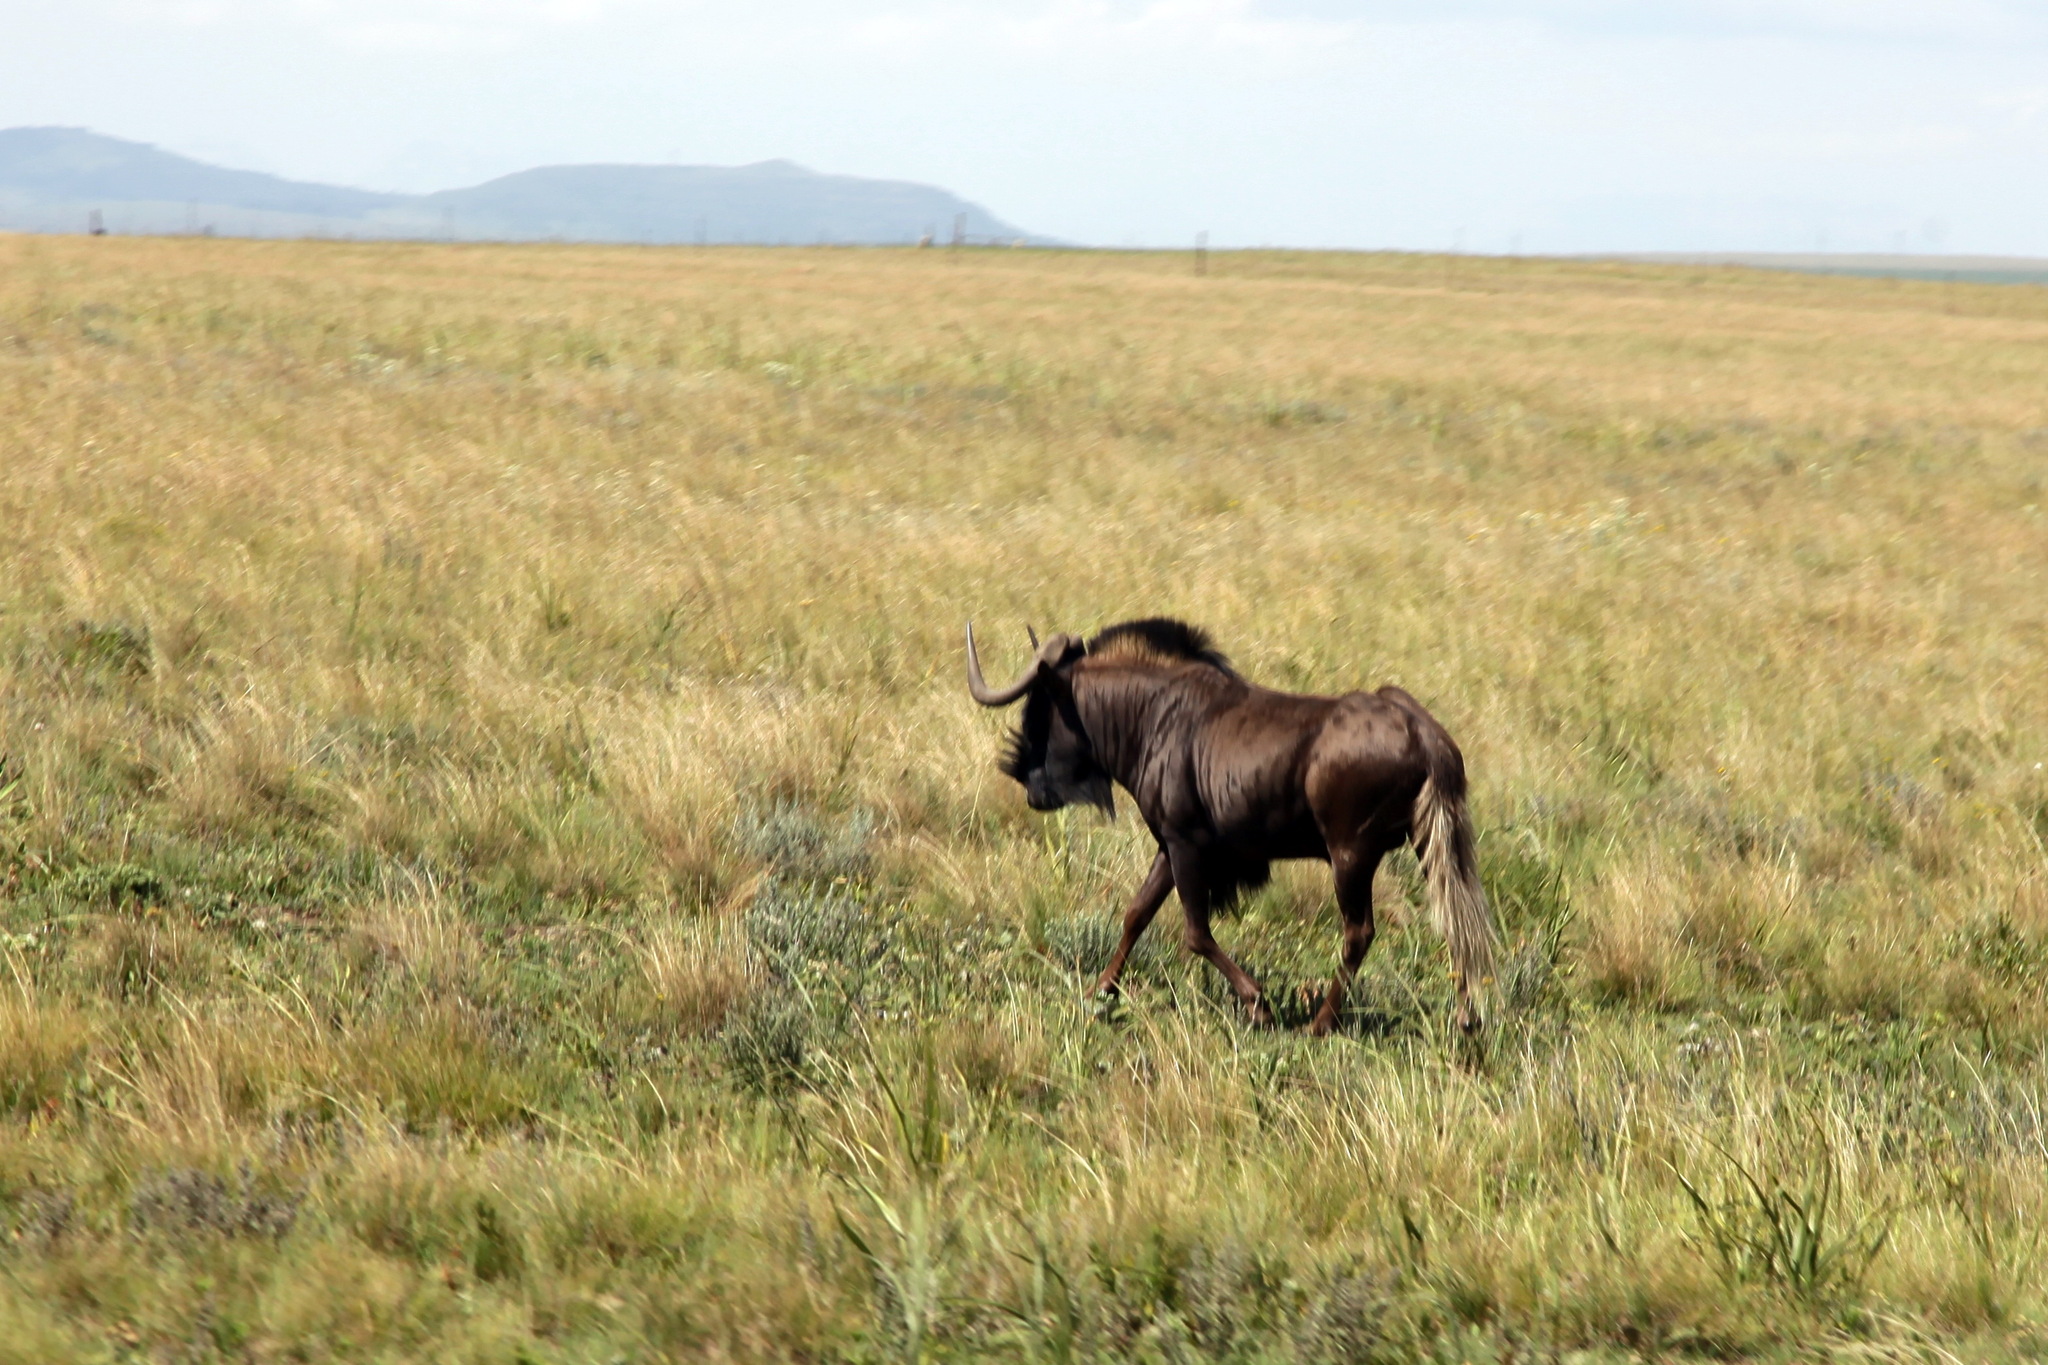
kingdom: Animalia
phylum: Chordata
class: Mammalia
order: Artiodactyla
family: Bovidae
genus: Connochaetes
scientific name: Connochaetes gnou
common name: Black wildebeest
